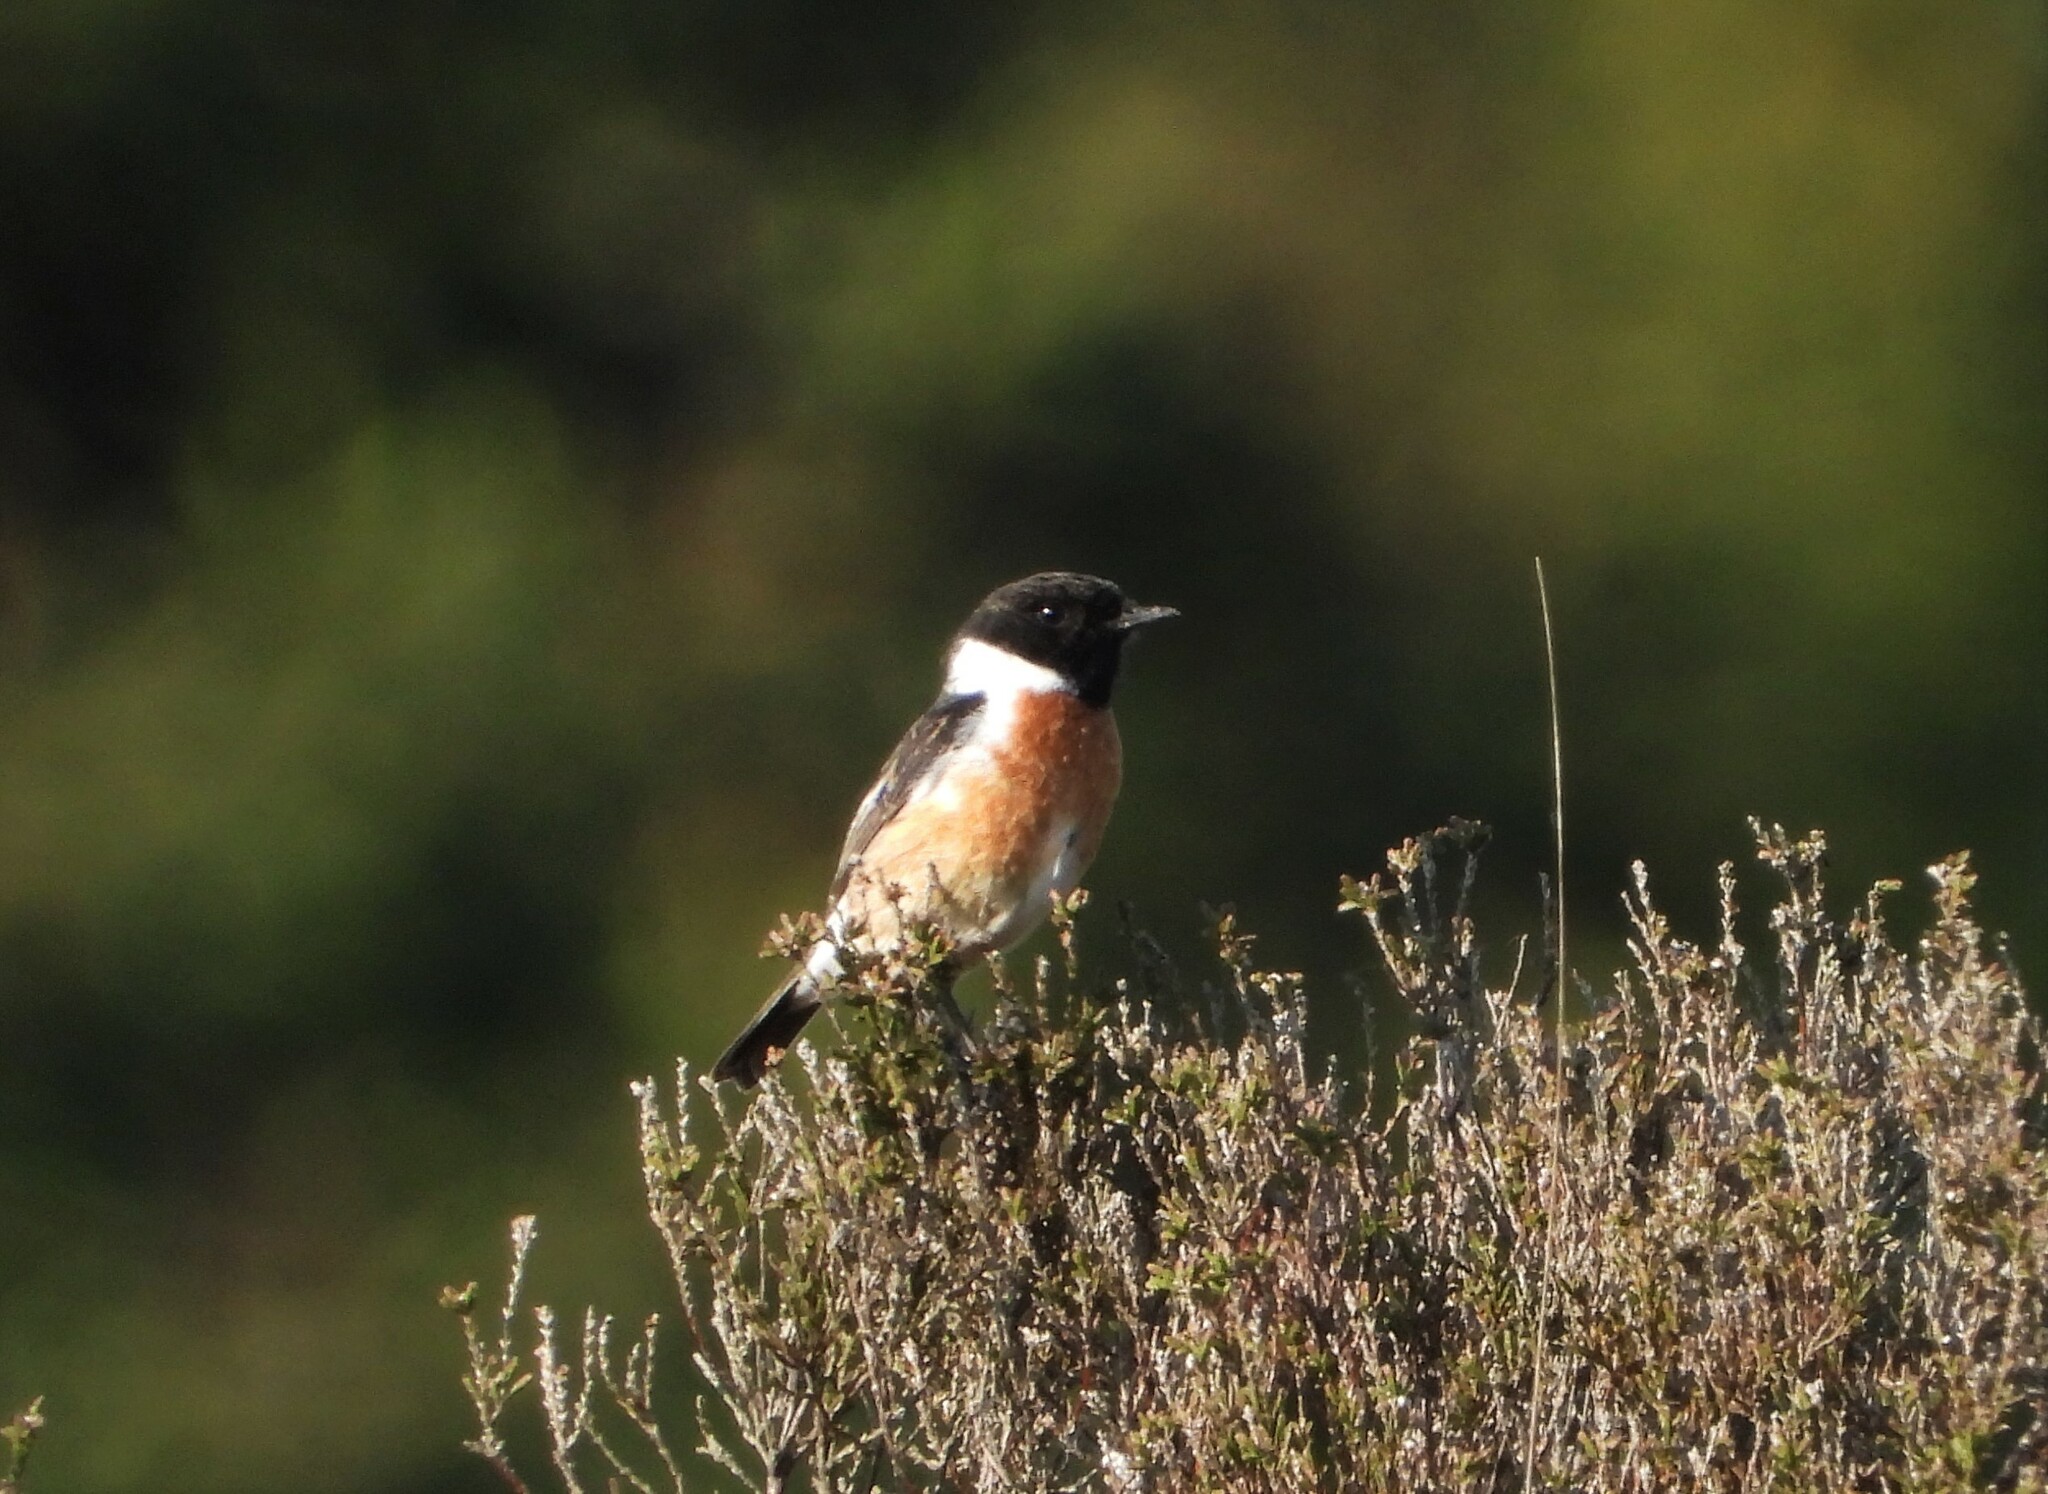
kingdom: Animalia
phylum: Chordata
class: Aves
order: Passeriformes
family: Muscicapidae
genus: Saxicola
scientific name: Saxicola rubicola
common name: European stonechat
